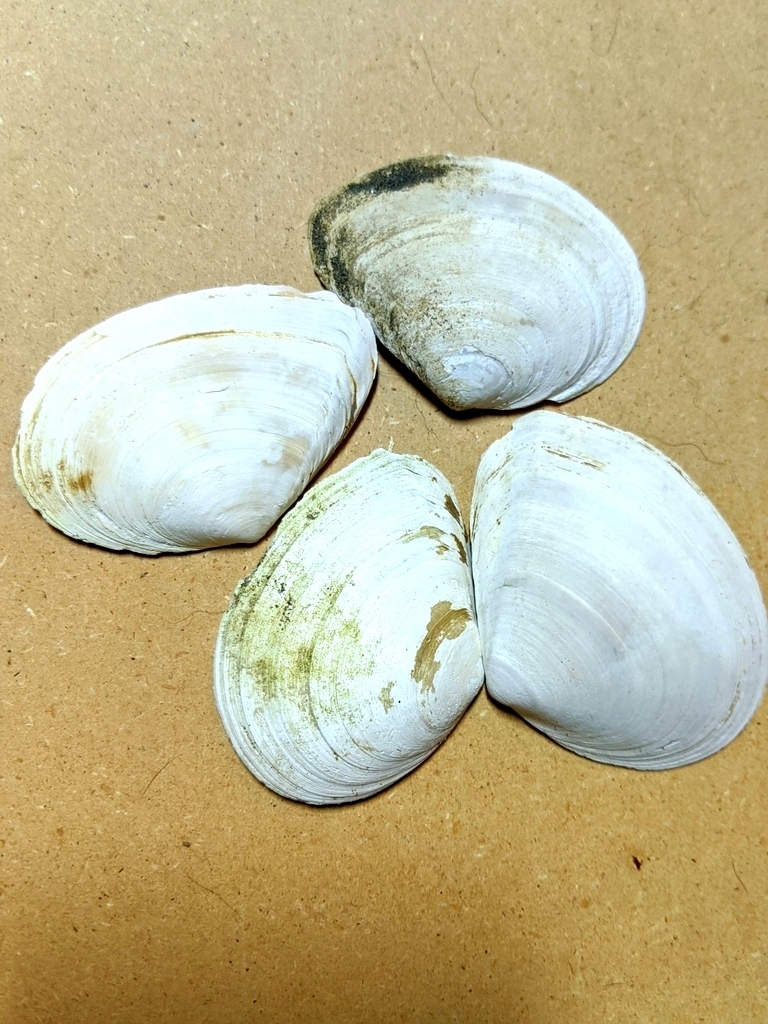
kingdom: Animalia
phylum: Mollusca
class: Bivalvia
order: Cardiida
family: Tellinidae
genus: Macoma
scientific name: Macoma nasuta
